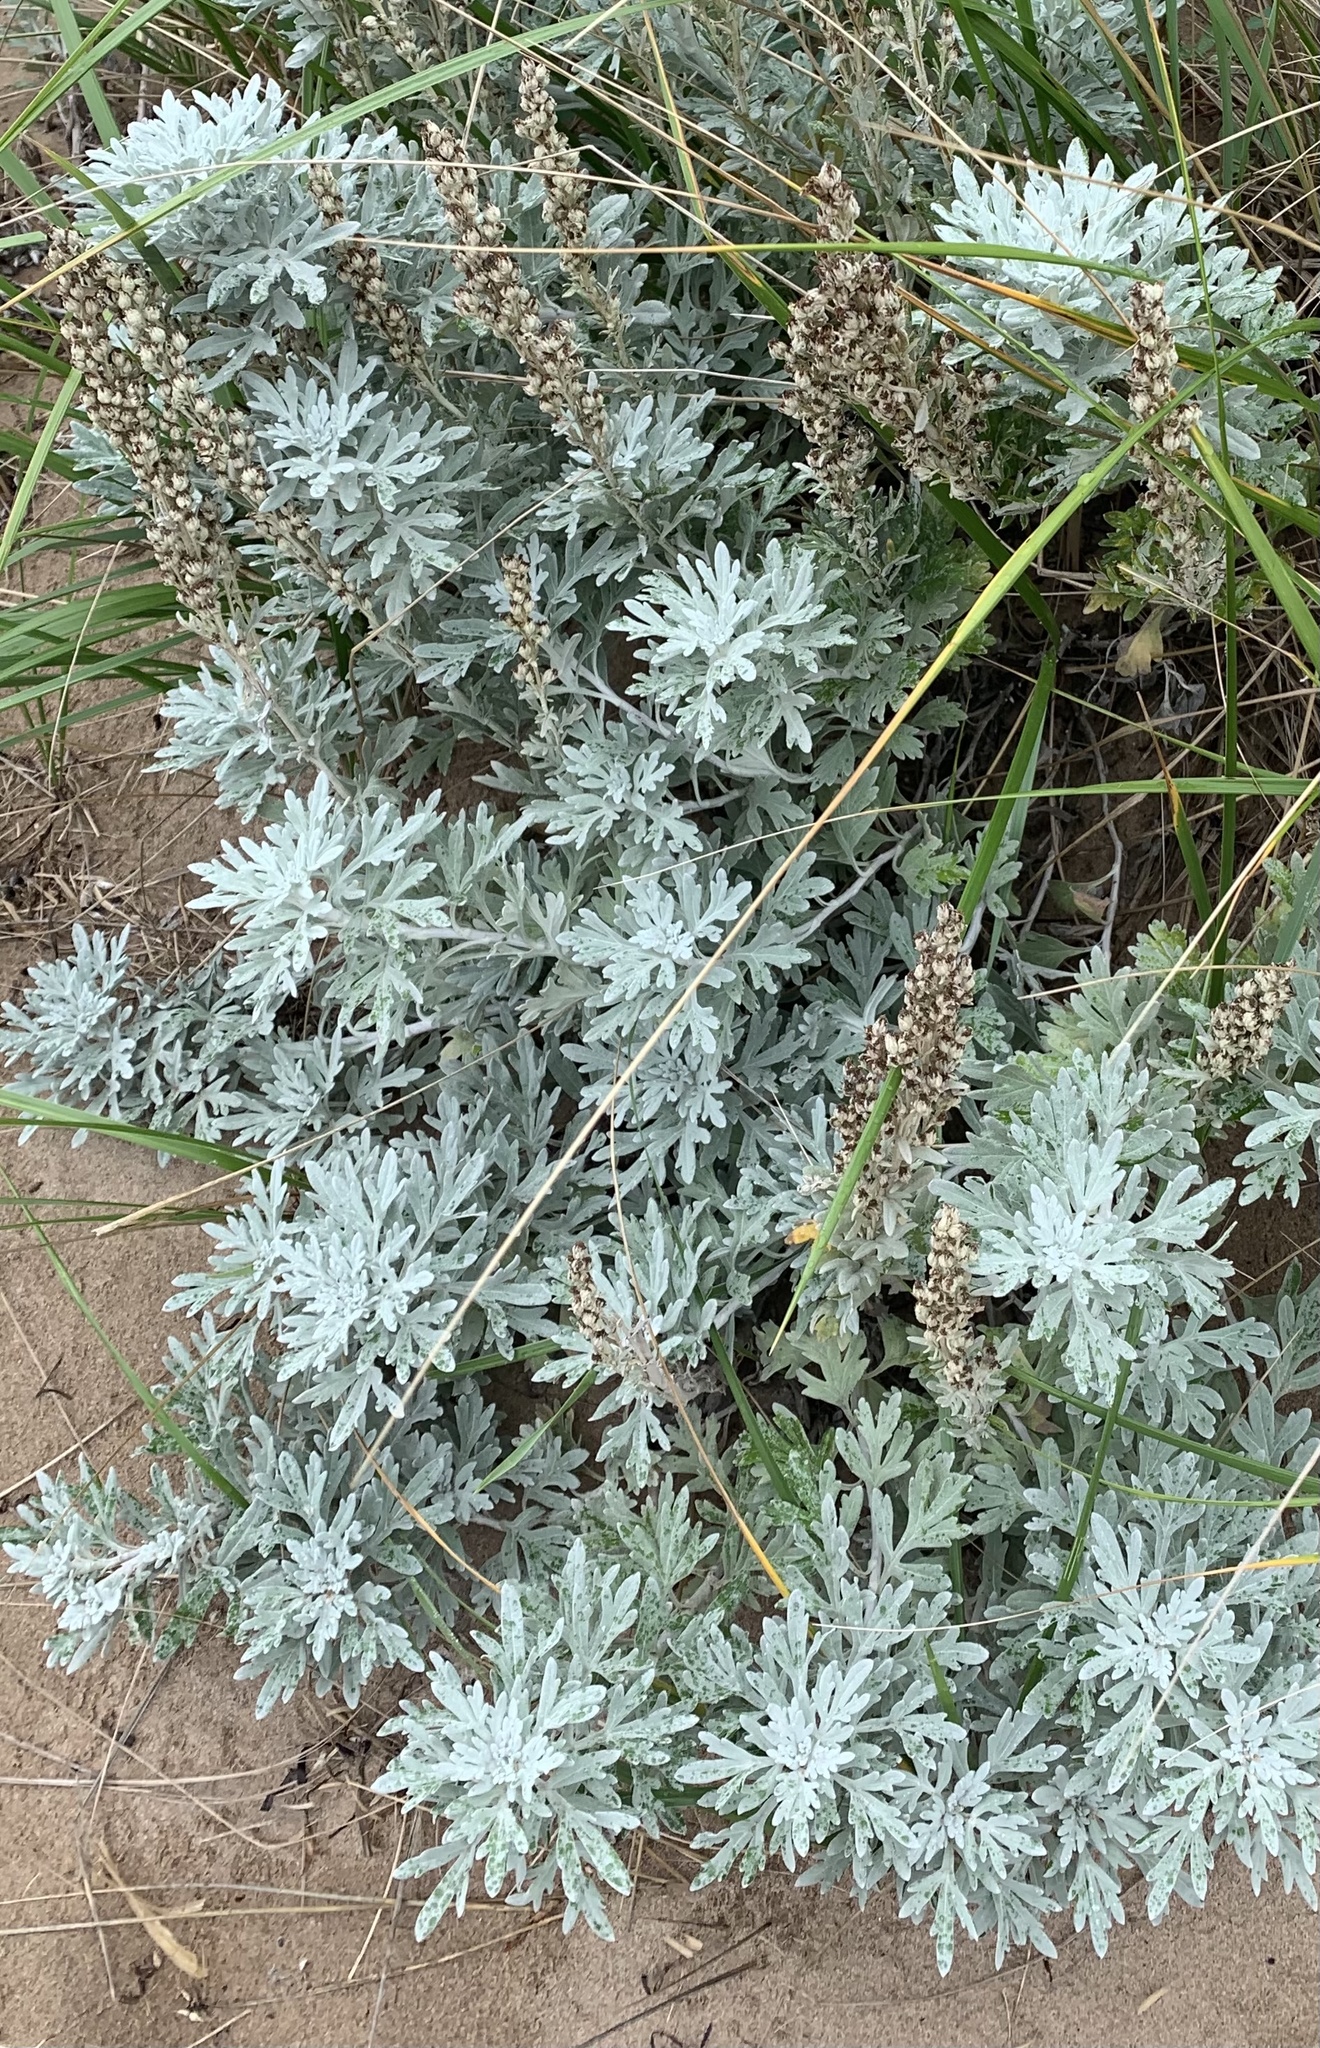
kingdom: Plantae
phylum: Tracheophyta
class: Magnoliopsida
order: Asterales
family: Asteraceae
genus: Artemisia
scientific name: Artemisia stelleriana
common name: Beach wormwood
